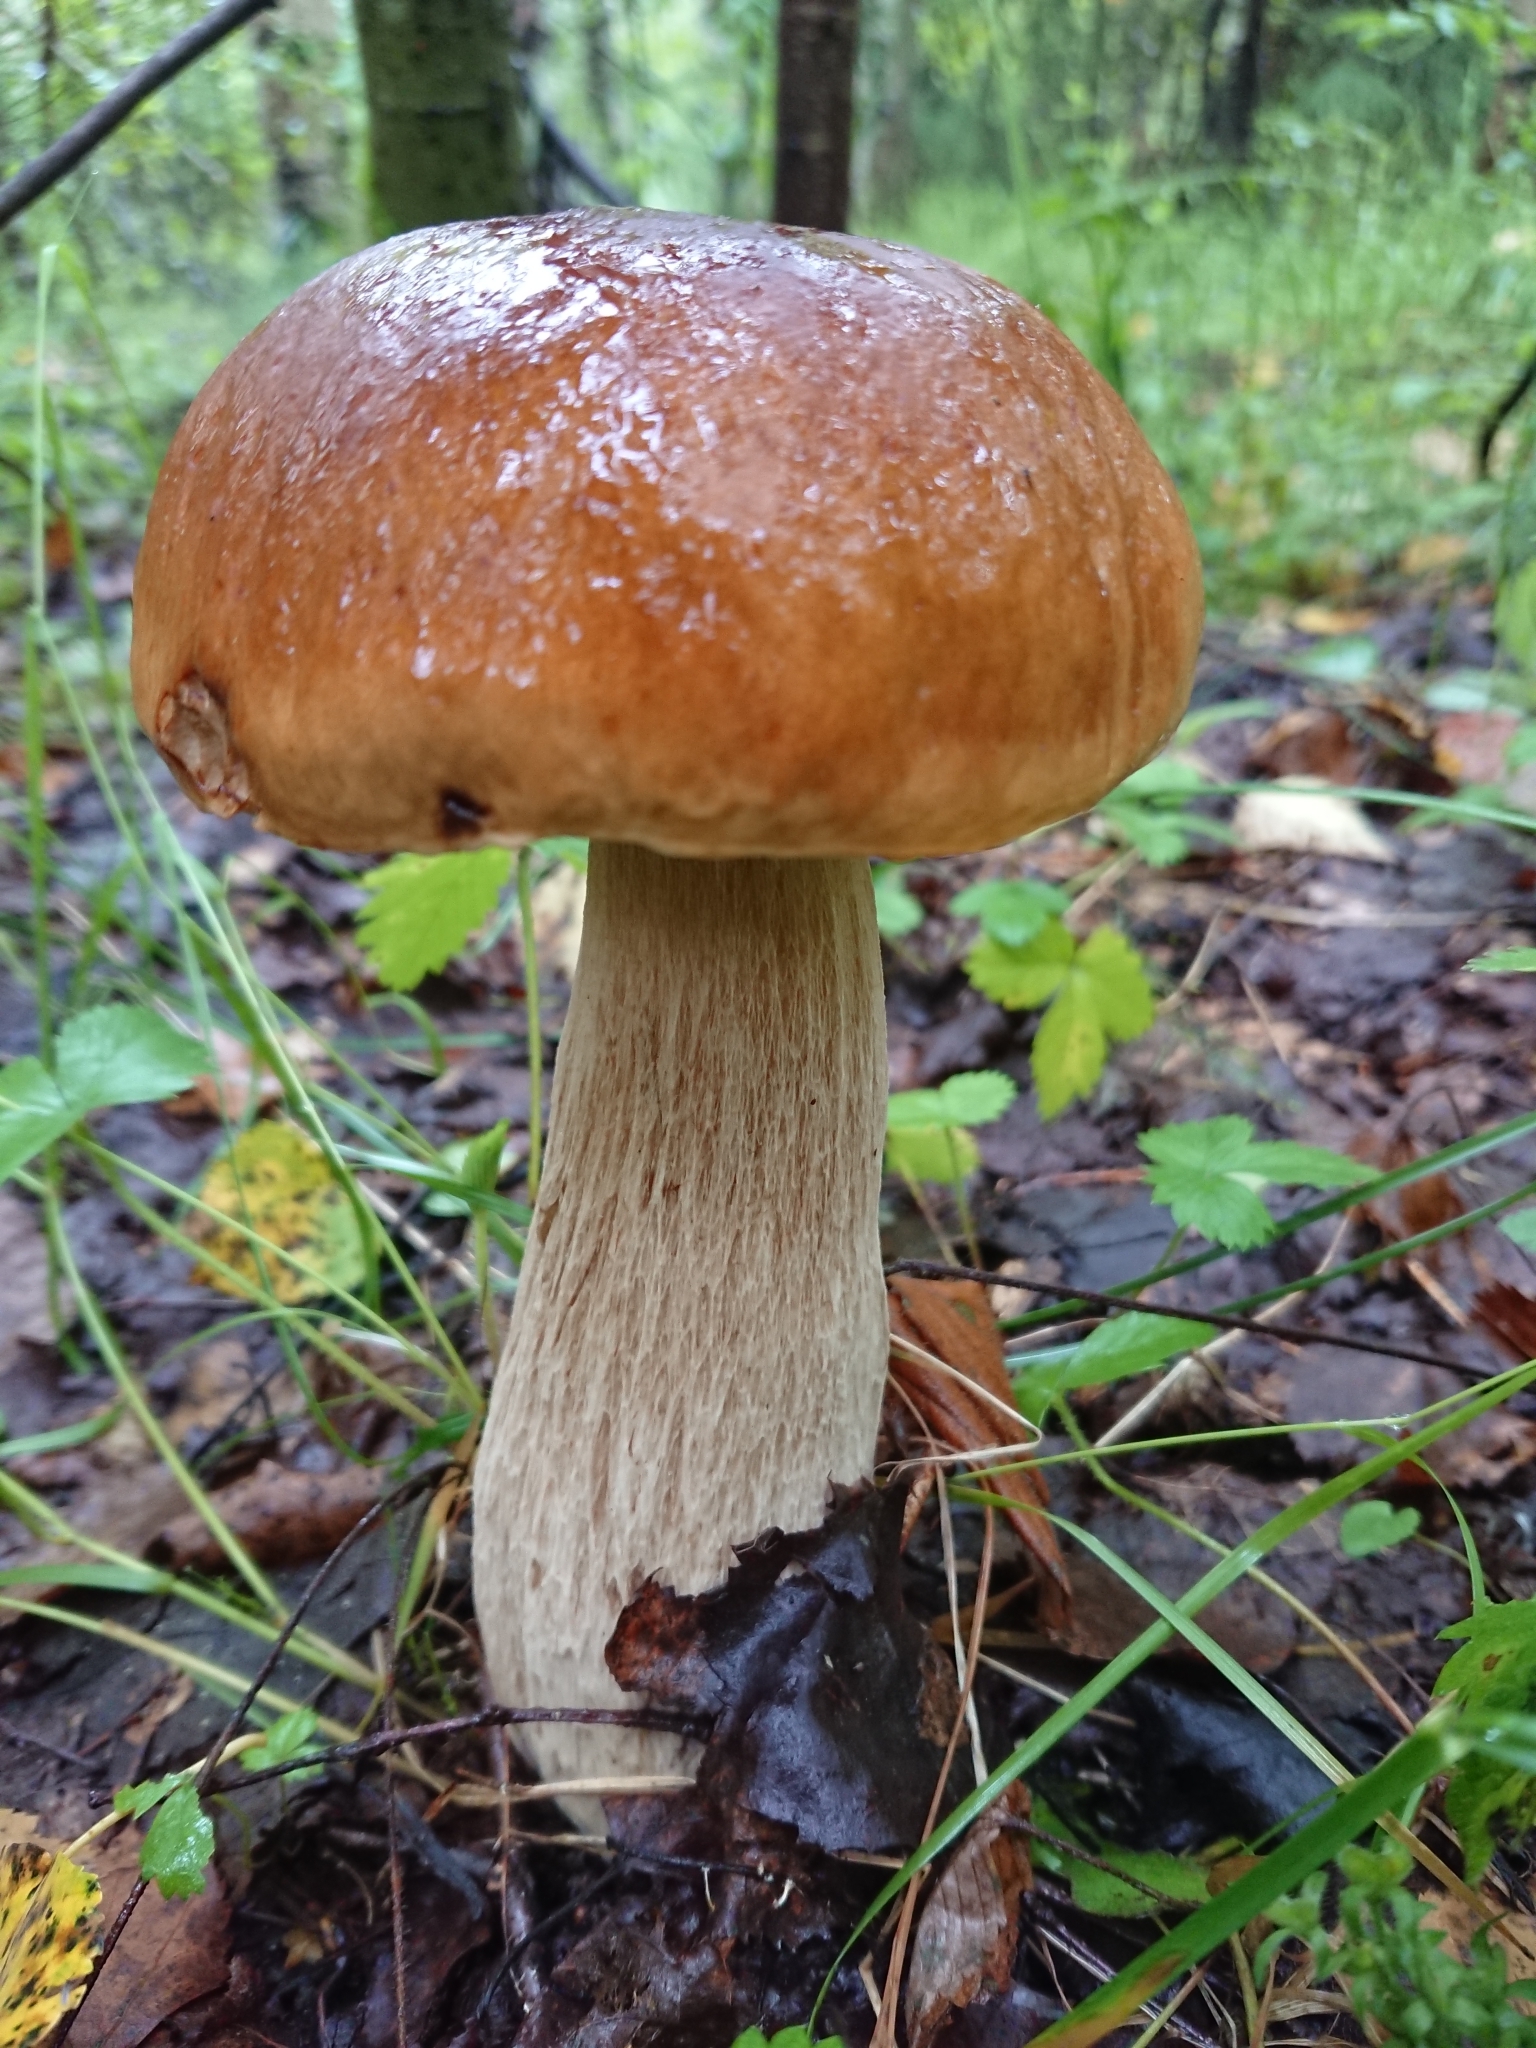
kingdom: Fungi
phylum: Basidiomycota
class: Agaricomycetes
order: Boletales
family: Boletaceae
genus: Boletus
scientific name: Boletus edulis
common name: Cep
